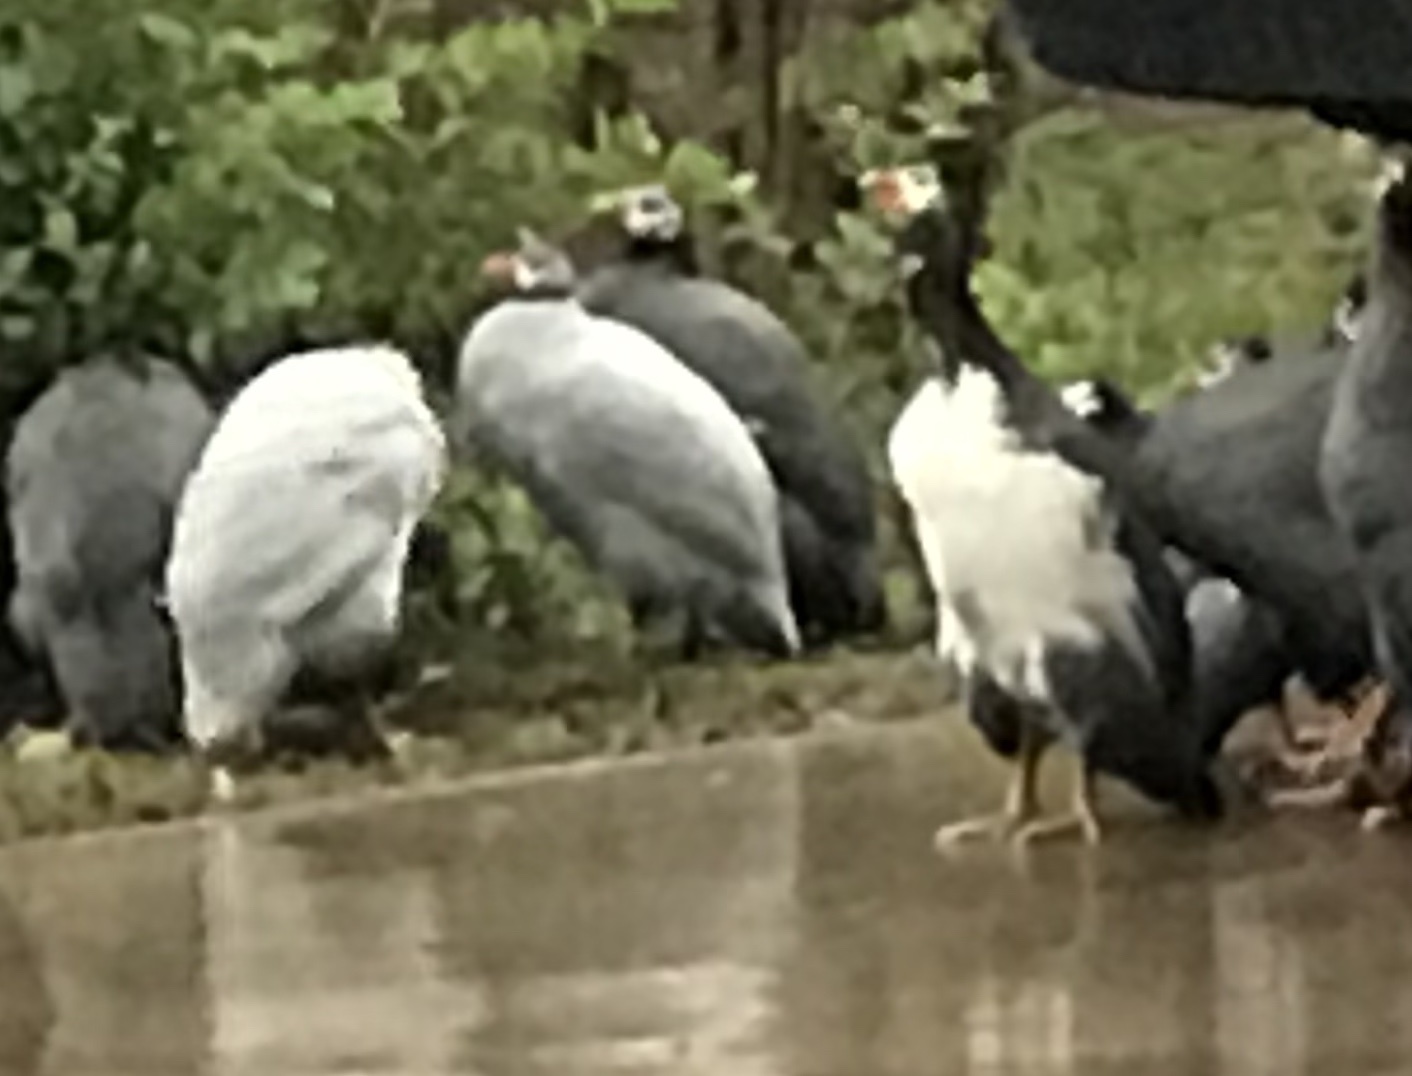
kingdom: Animalia
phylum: Chordata
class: Aves
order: Galliformes
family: Numididae
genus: Numida
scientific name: Numida meleagris
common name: Helmeted guineafowl
